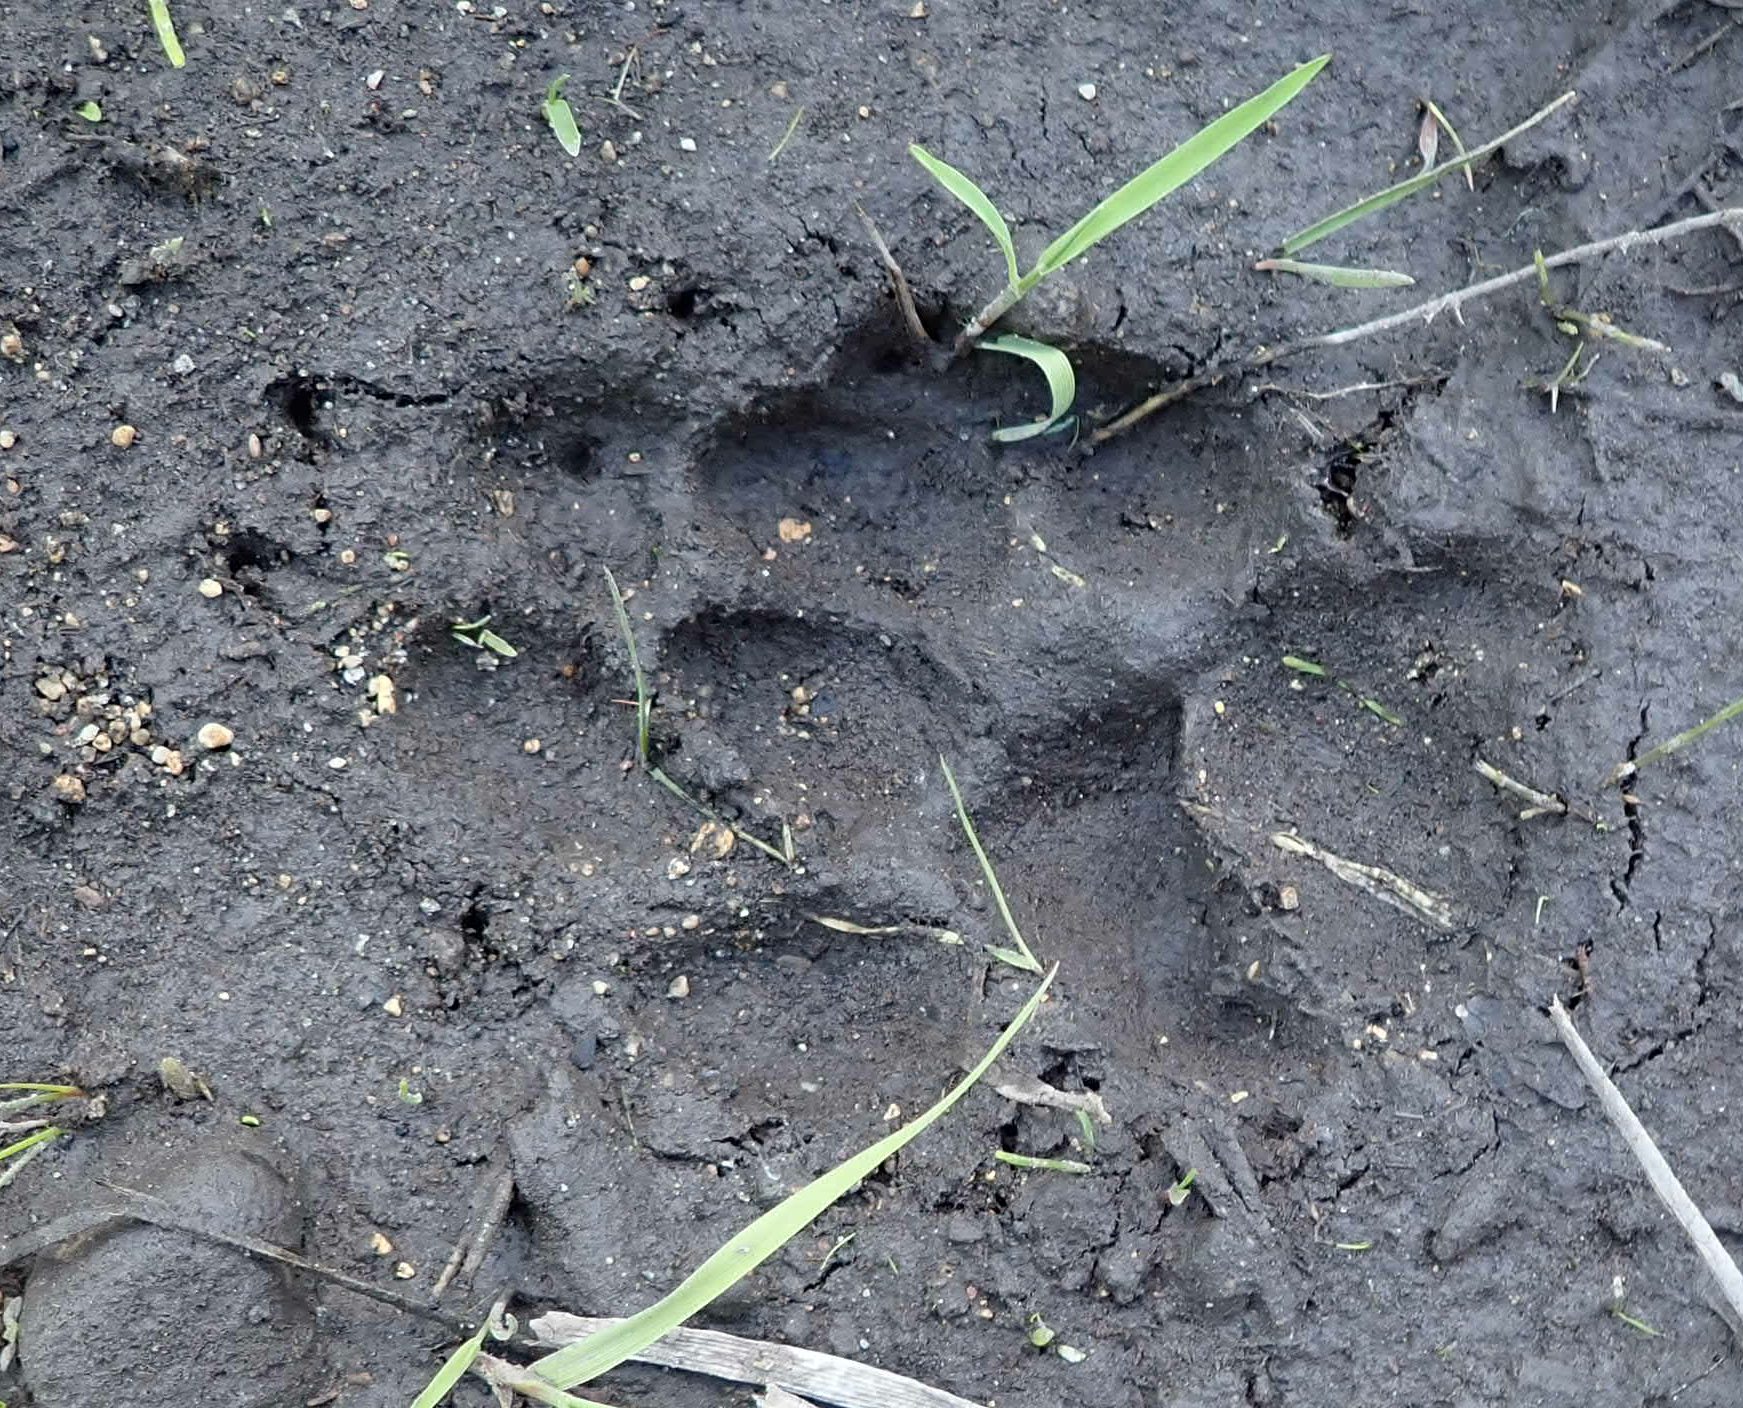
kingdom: Animalia
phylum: Chordata
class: Mammalia
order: Carnivora
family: Canidae
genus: Canis
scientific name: Canis lupus
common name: Gray wolf
